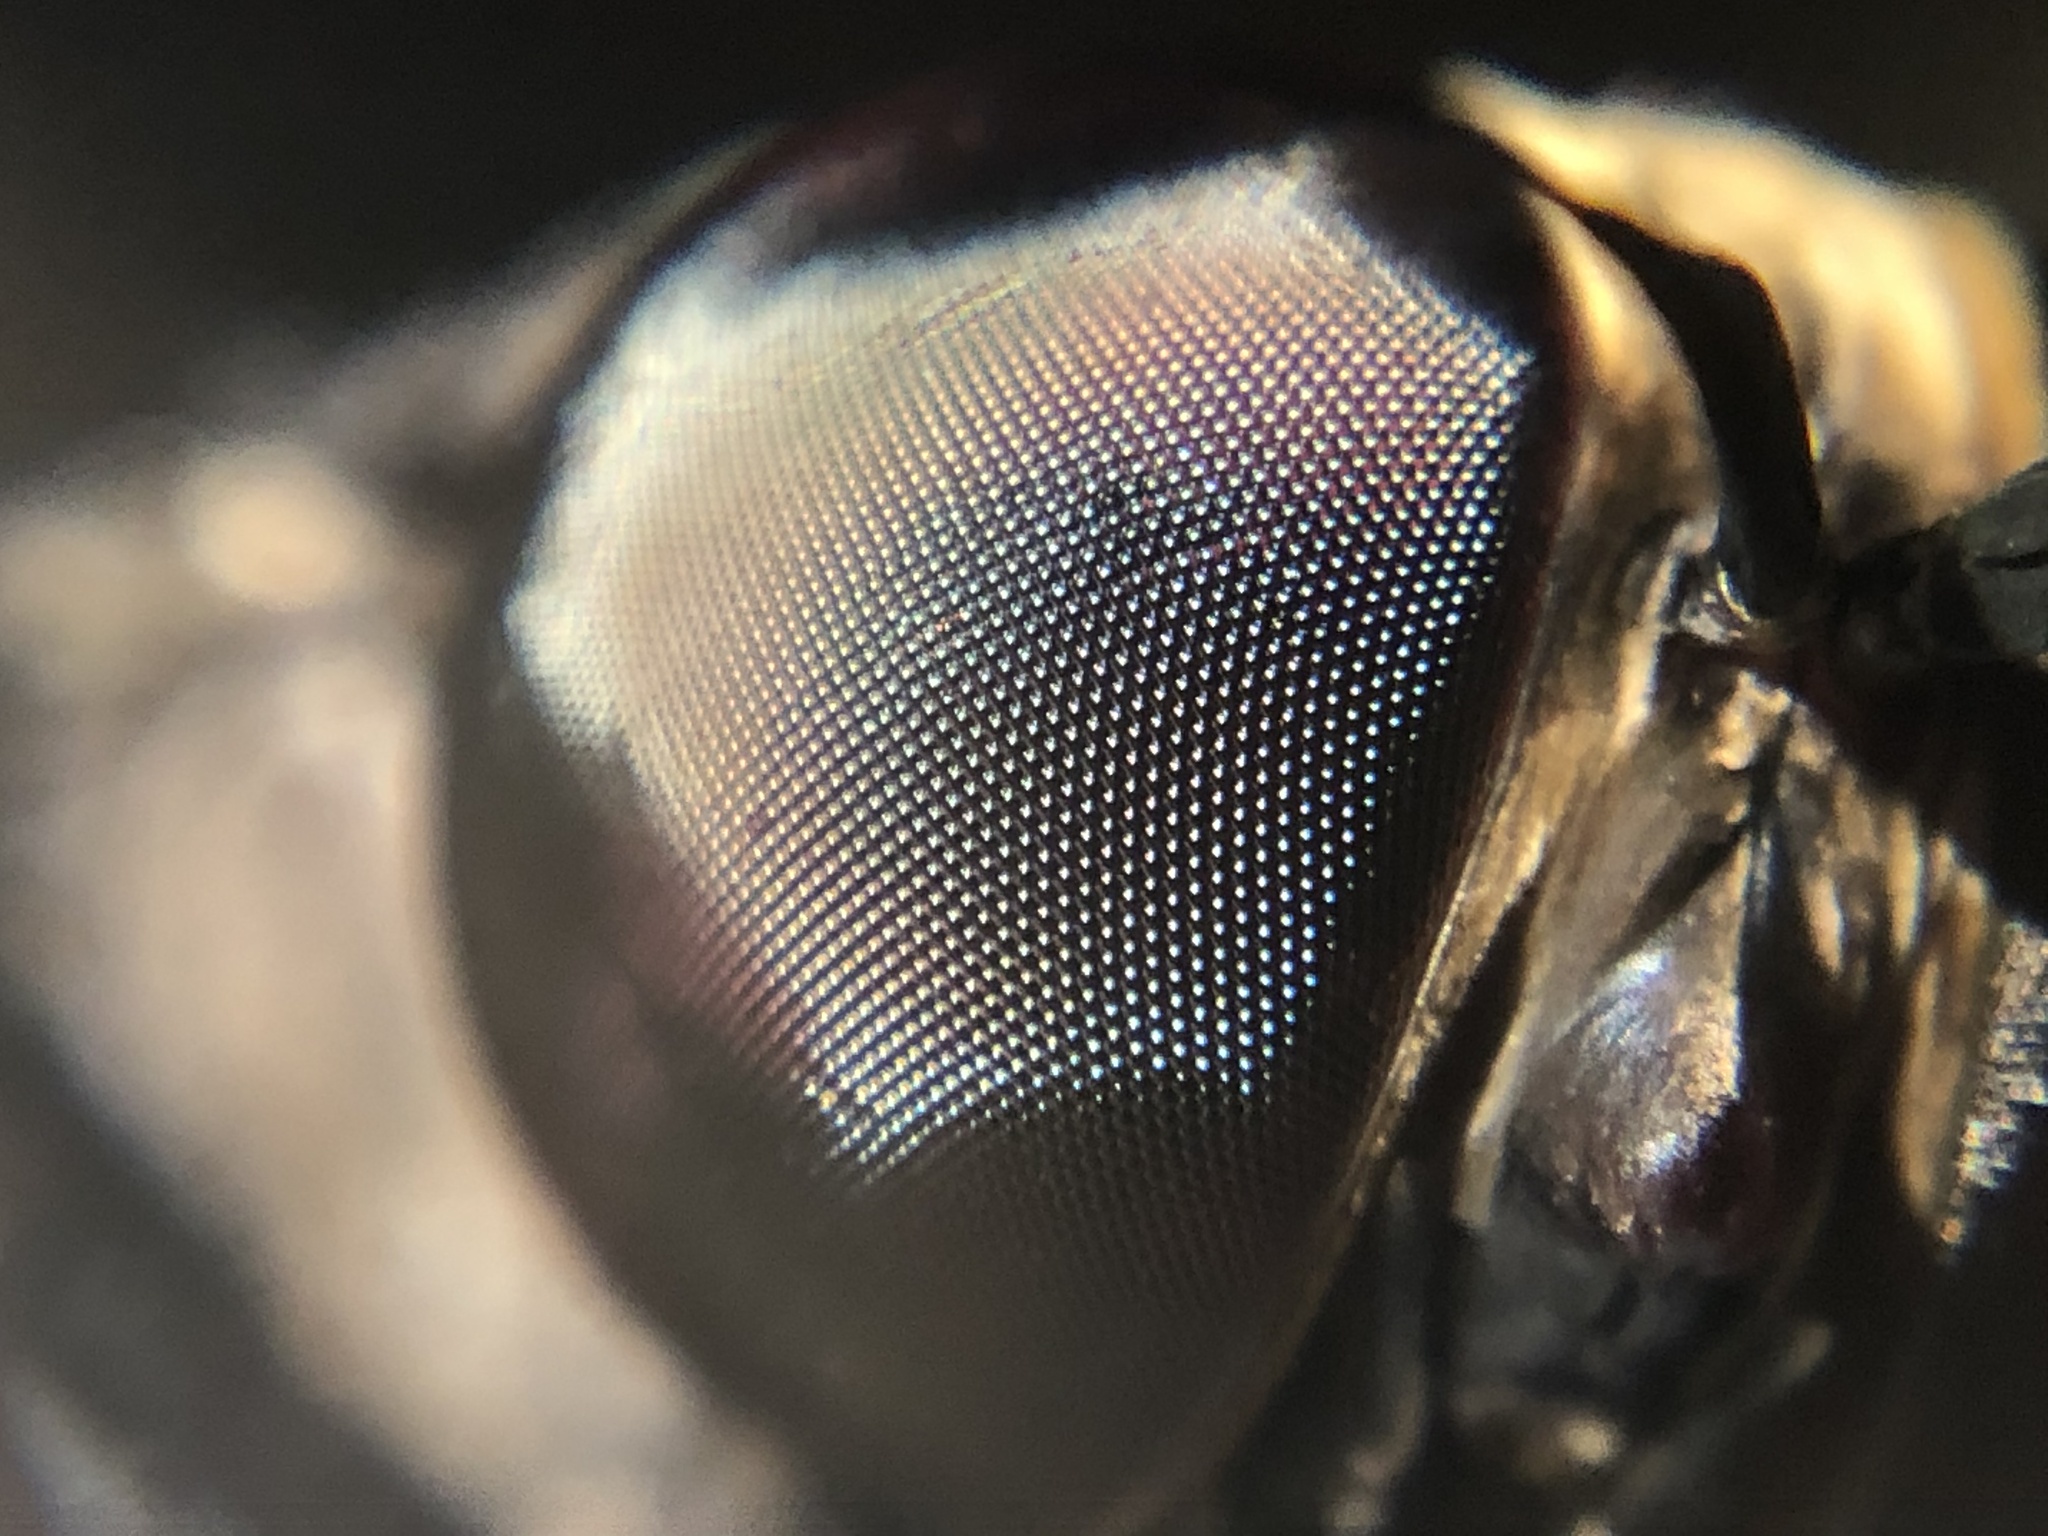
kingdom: Animalia
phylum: Arthropoda
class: Insecta
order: Diptera
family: Pantophthalmidae
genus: Pantophthalmus
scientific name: Pantophthalmus tabaninus
